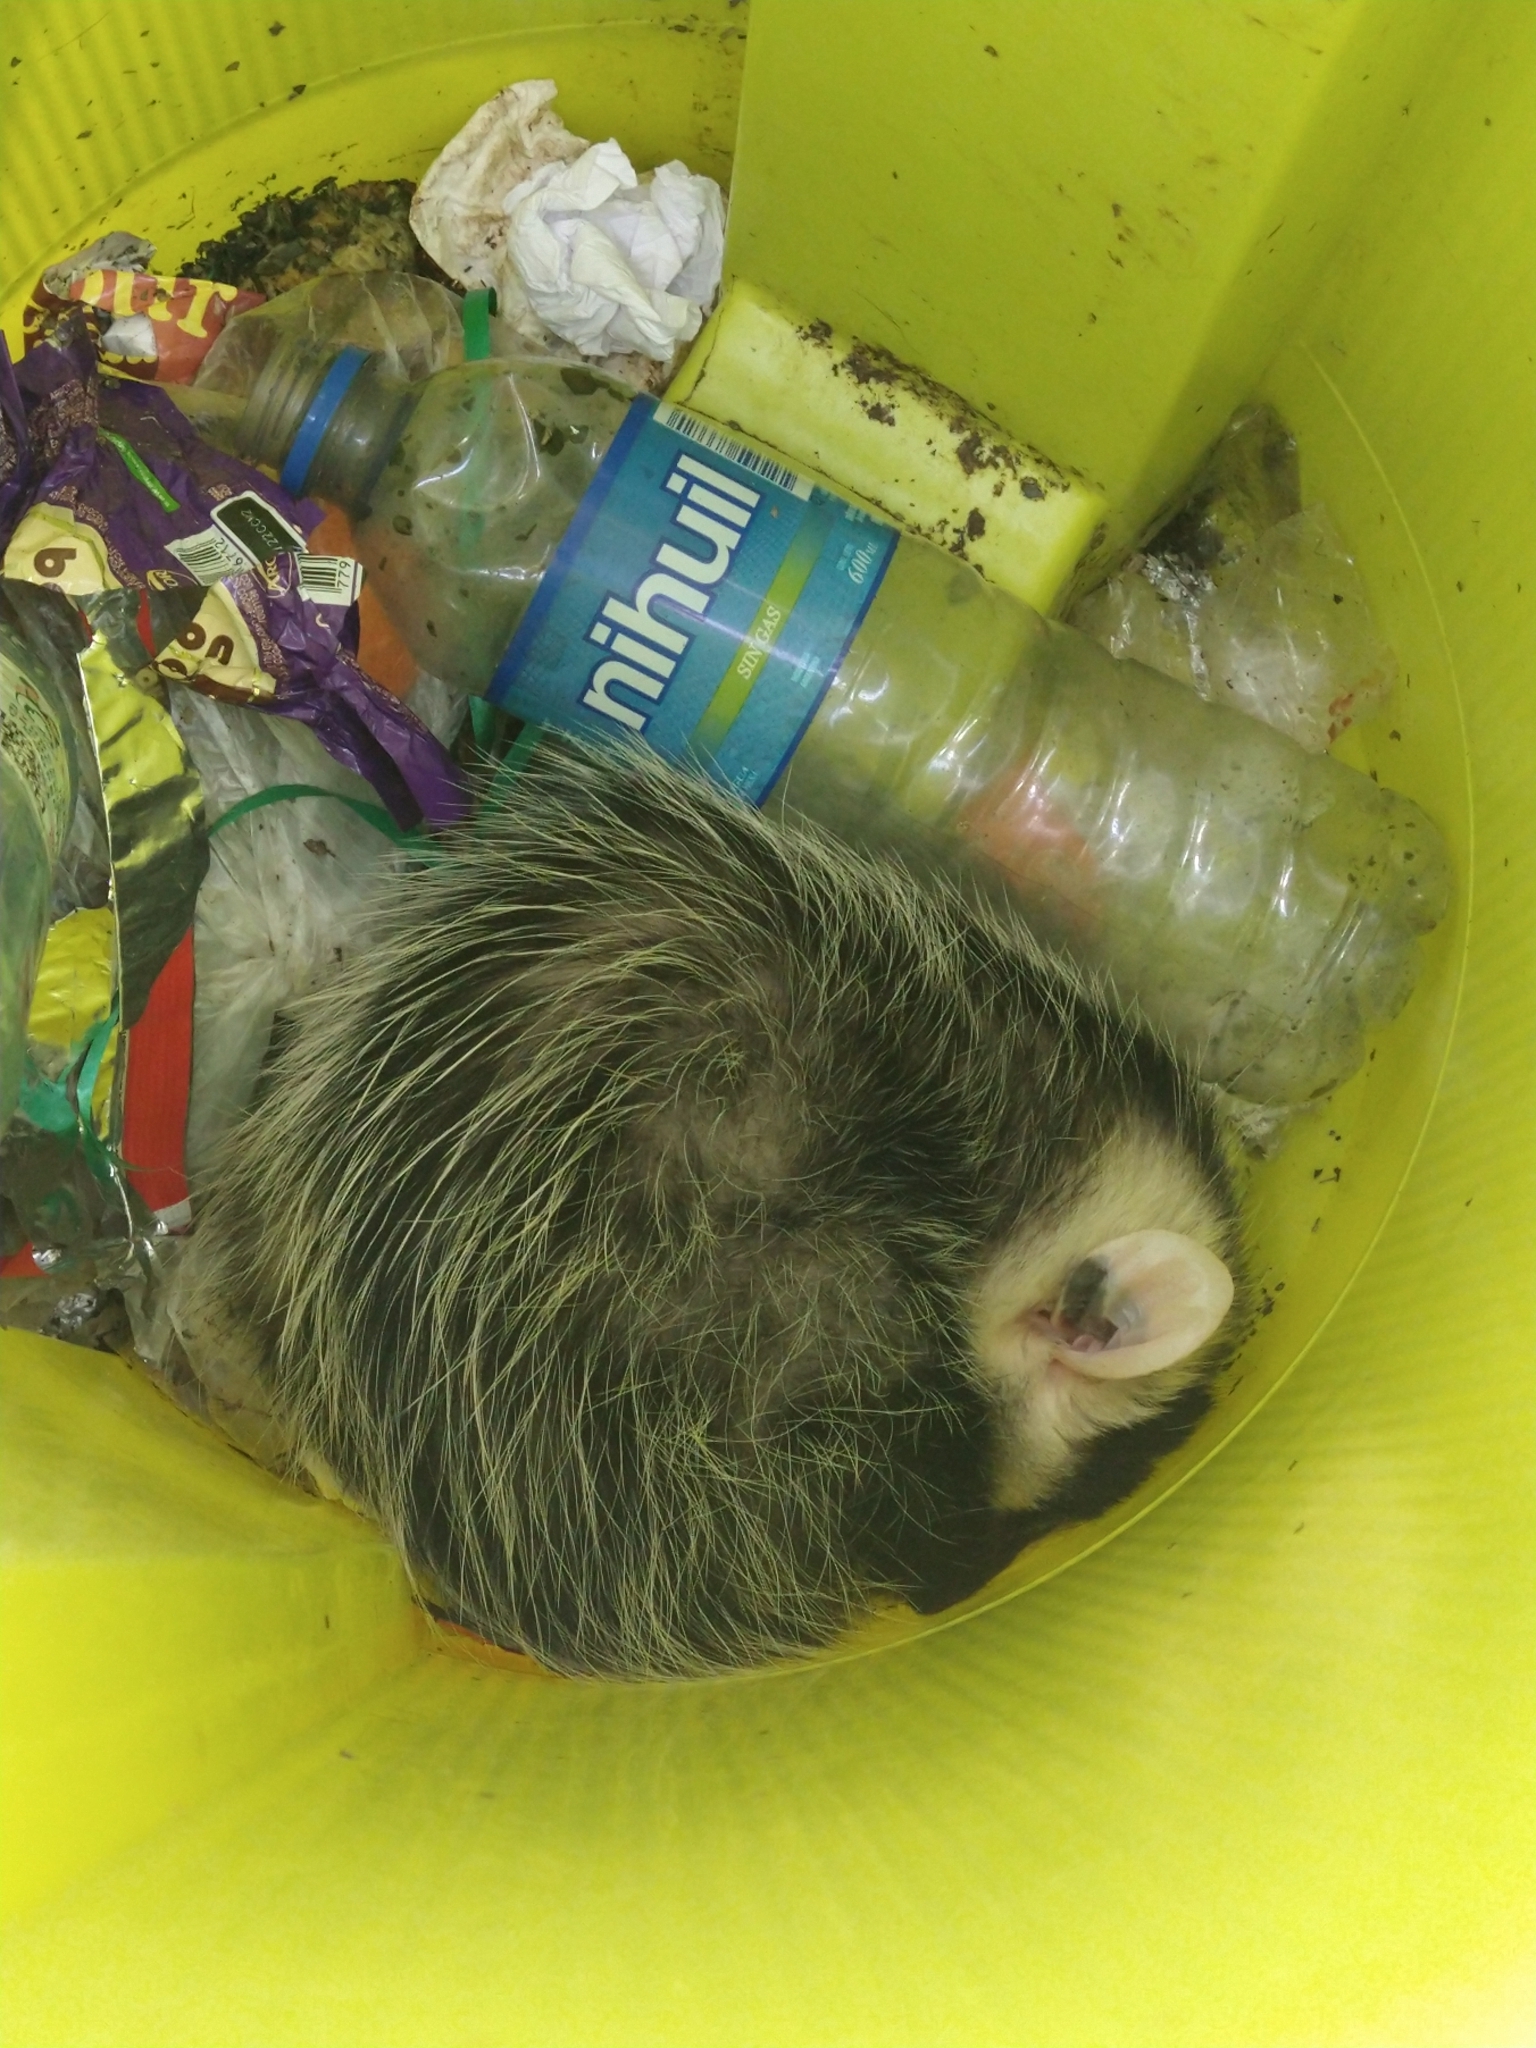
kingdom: Animalia
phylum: Chordata
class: Mammalia
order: Didelphimorphia
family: Didelphidae
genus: Didelphis
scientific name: Didelphis albiventris
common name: White-eared opossum
